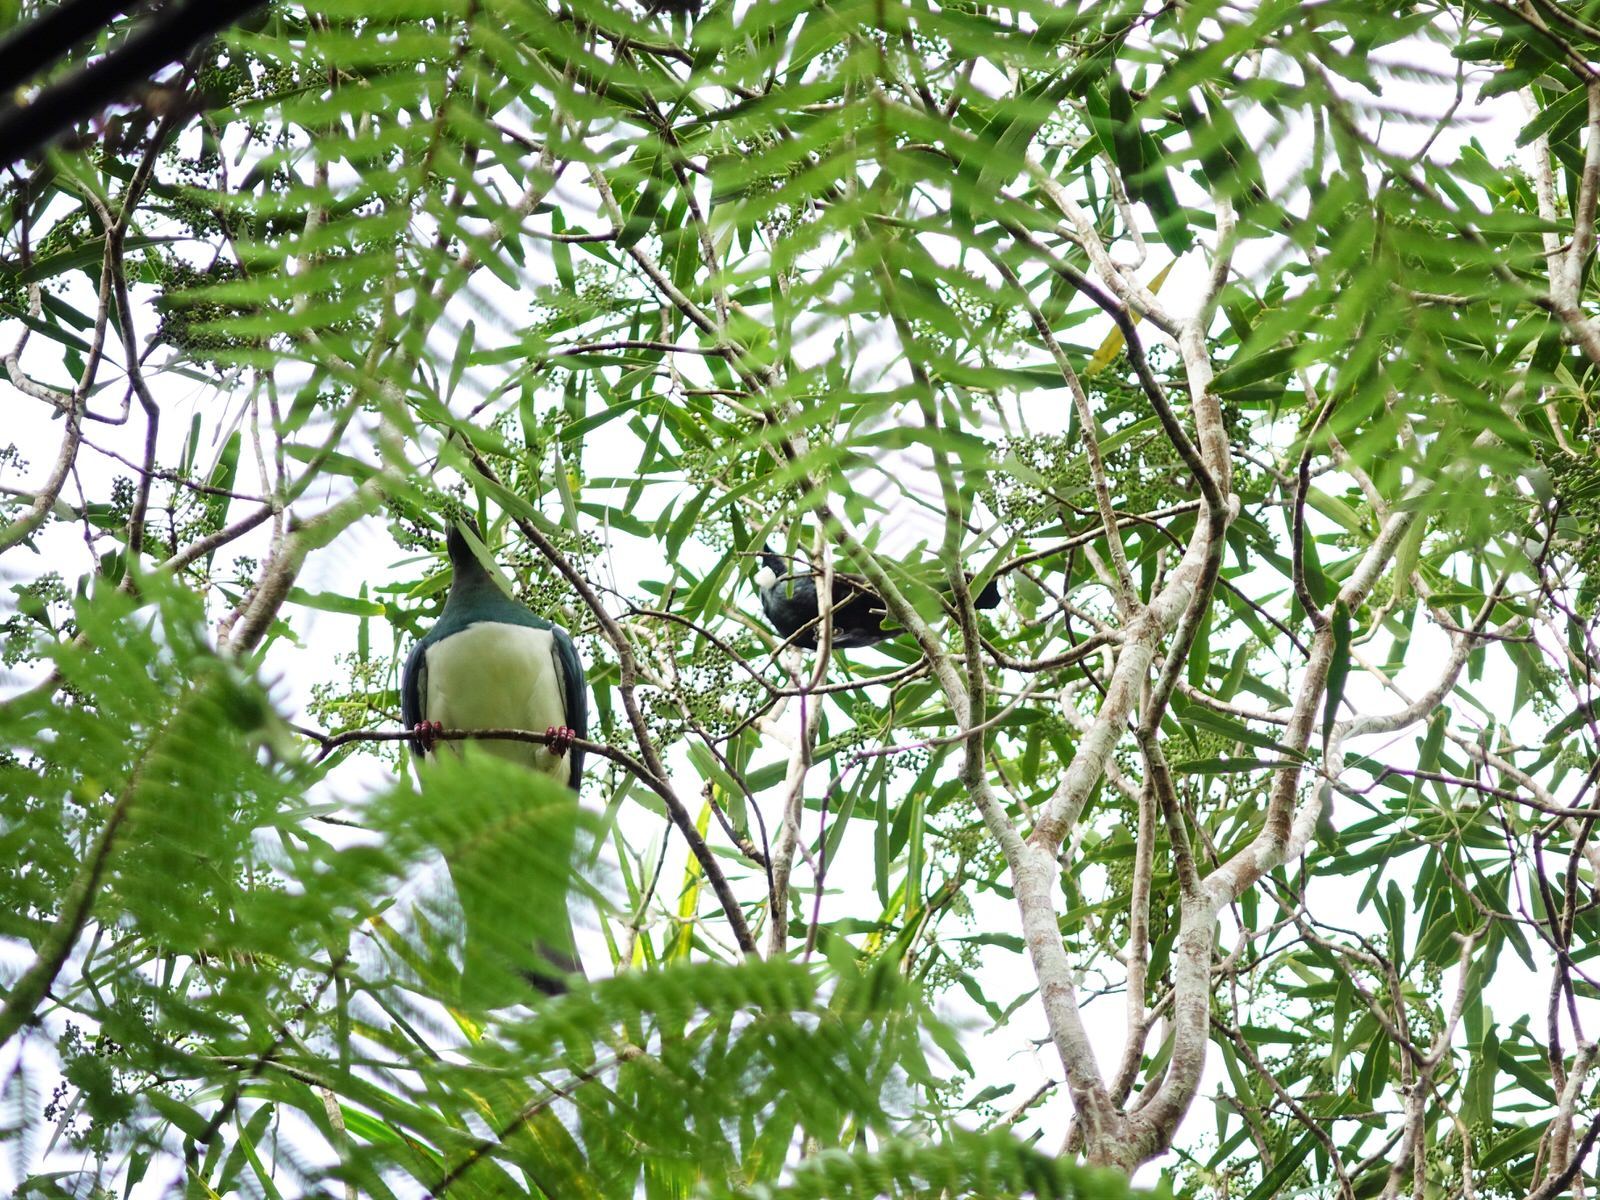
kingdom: Animalia
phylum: Chordata
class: Aves
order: Columbiformes
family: Columbidae
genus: Hemiphaga
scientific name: Hemiphaga novaeseelandiae
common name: New zealand pigeon
